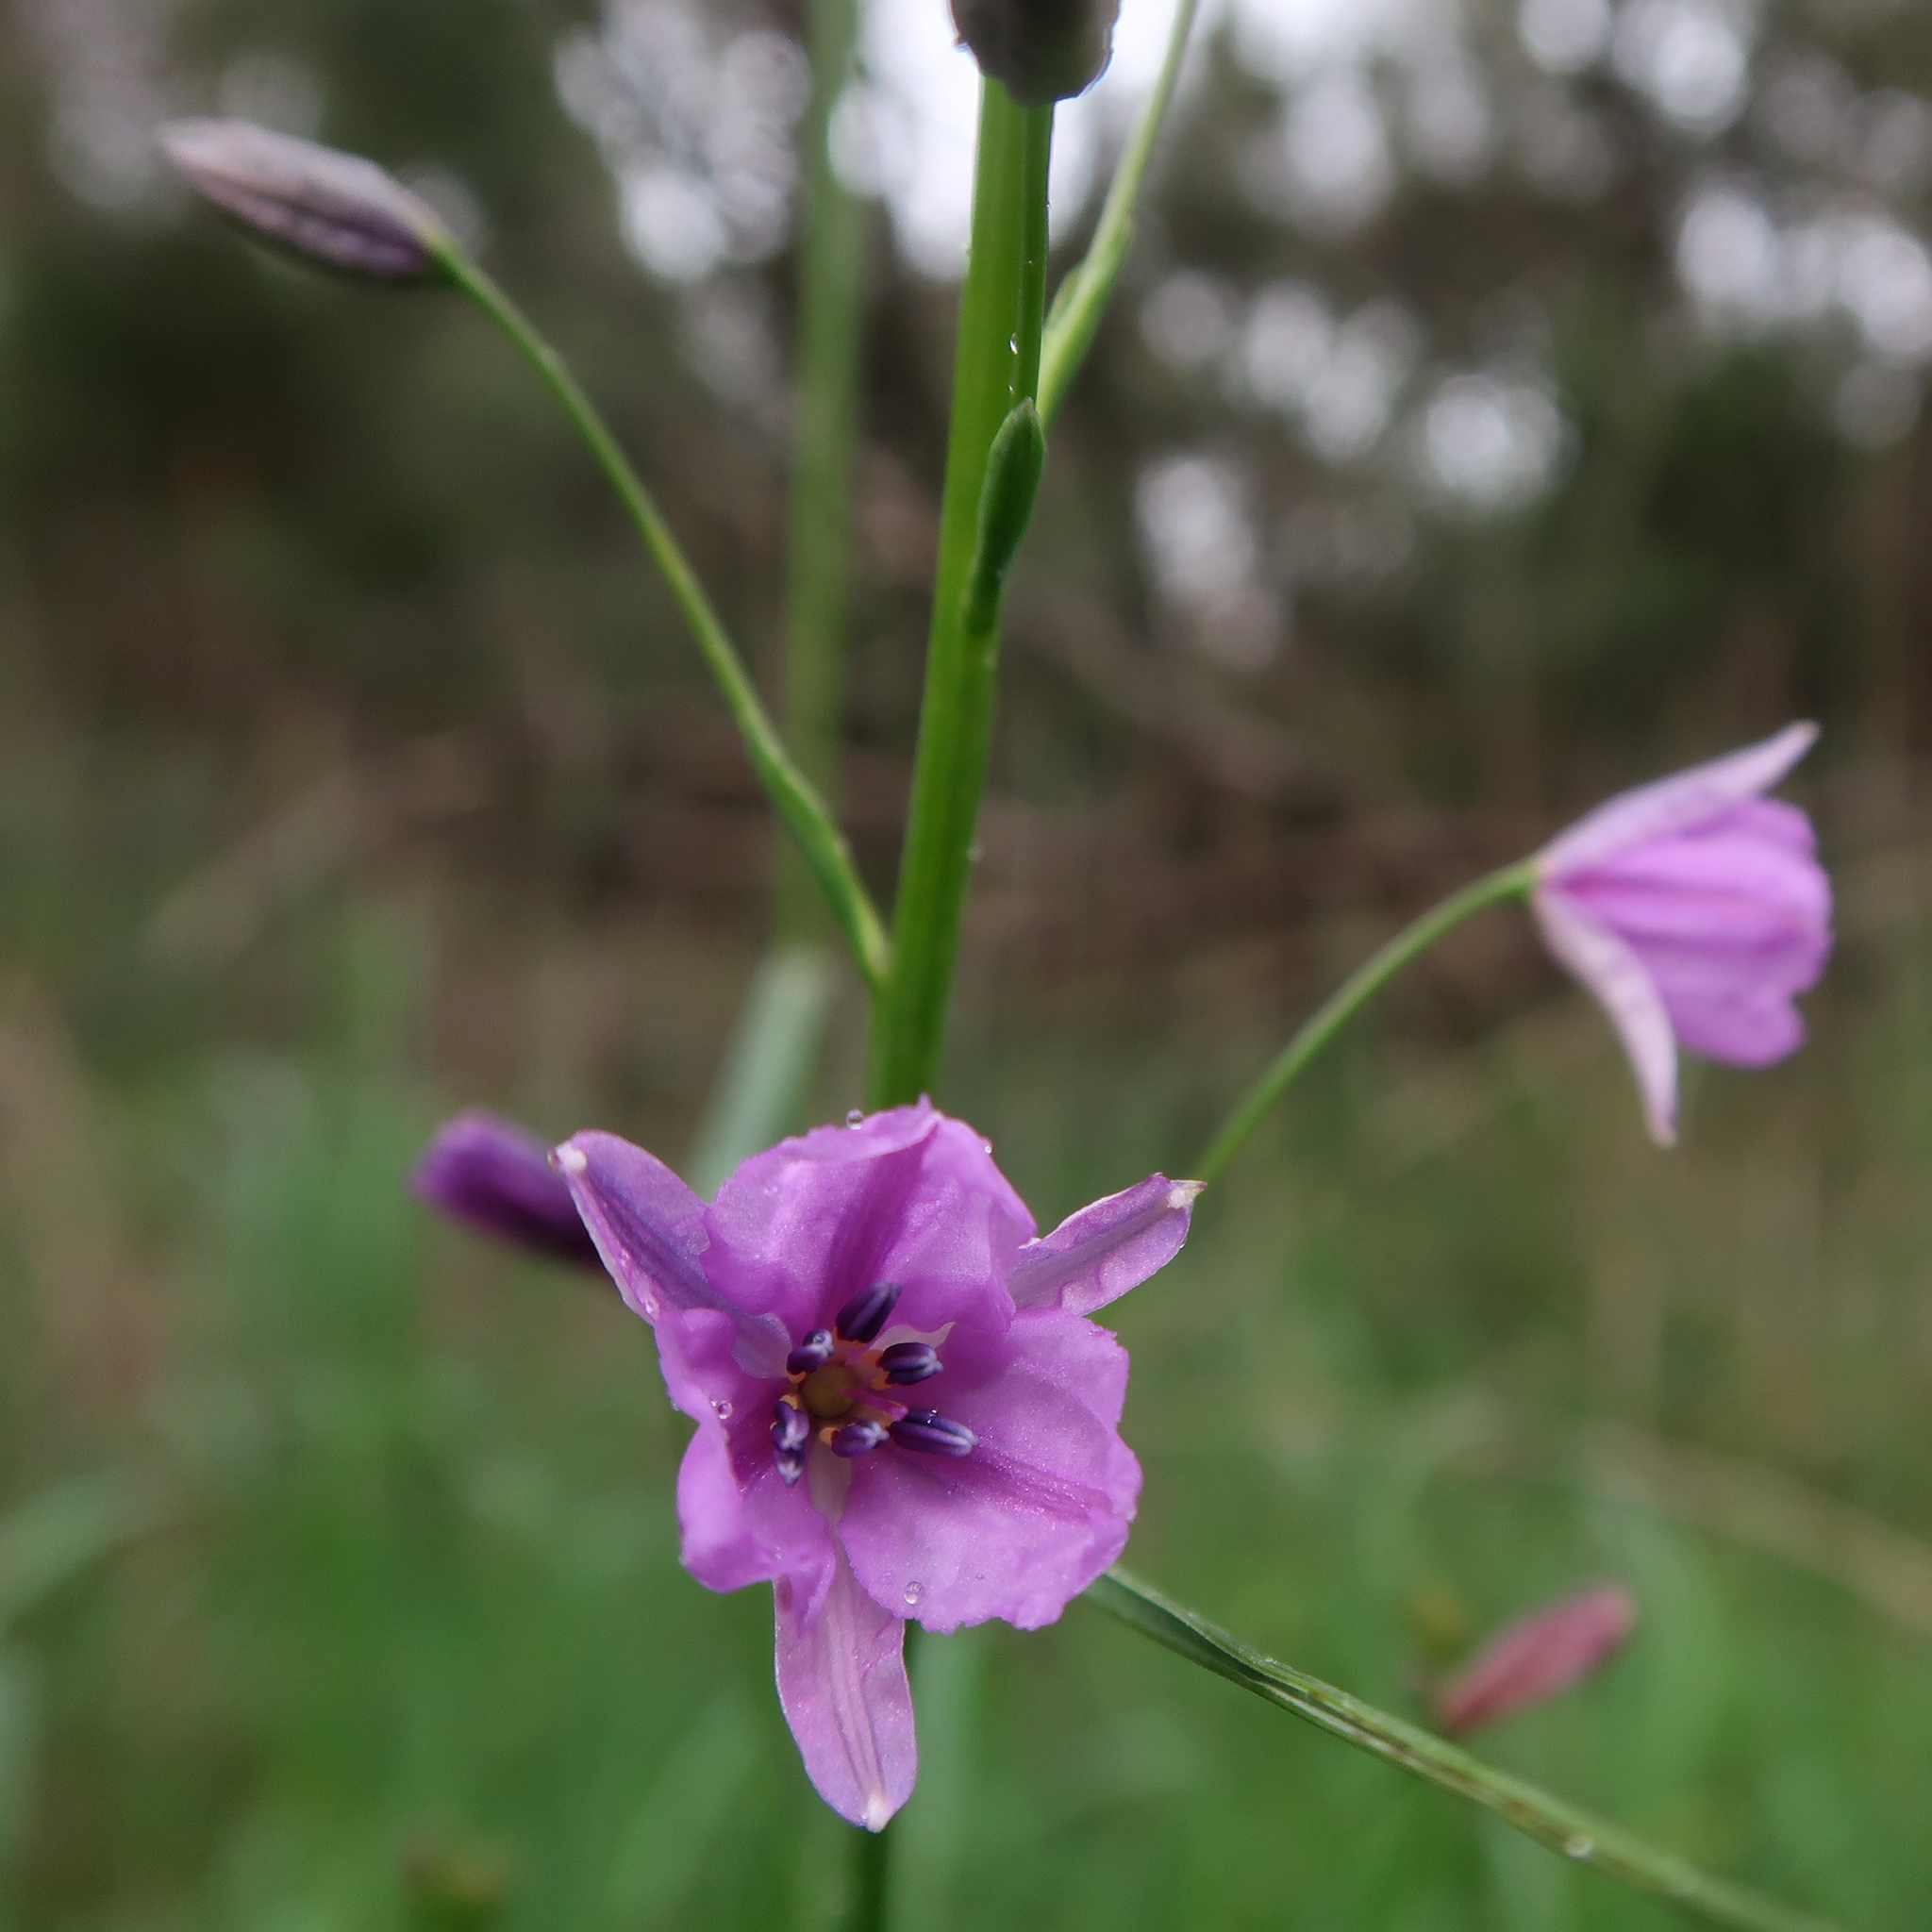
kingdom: Plantae
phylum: Tracheophyta
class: Liliopsida
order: Asparagales
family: Asparagaceae
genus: Arthropodium
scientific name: Arthropodium strictum
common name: Chocolate-lily
